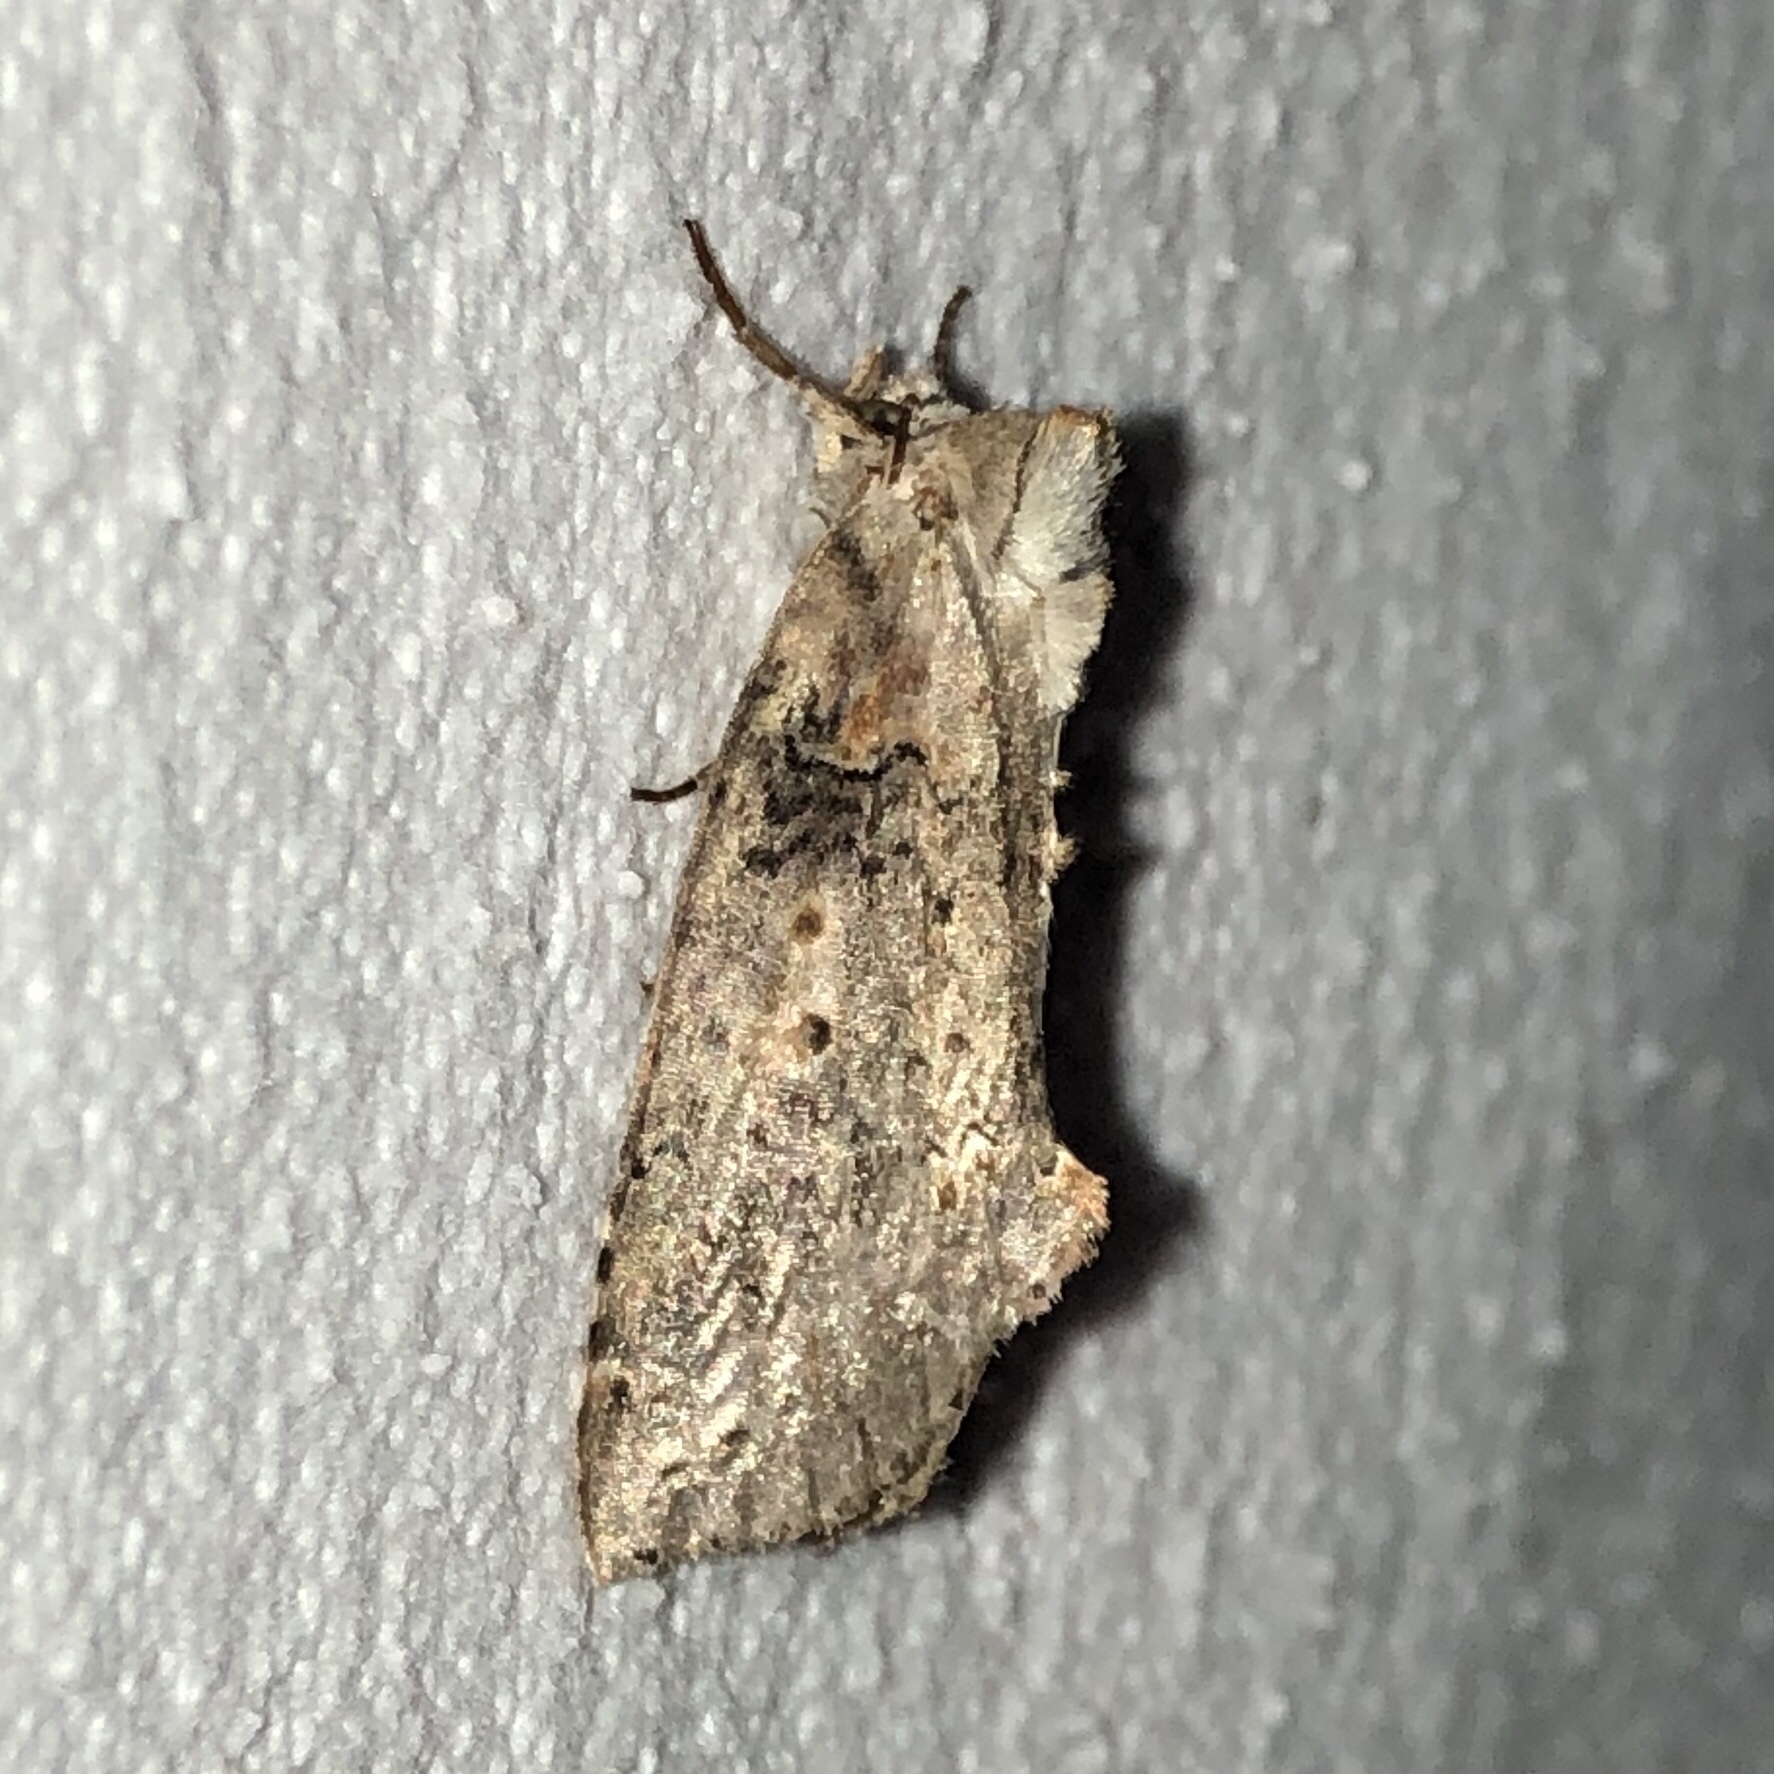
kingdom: Animalia
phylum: Arthropoda
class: Insecta
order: Lepidoptera
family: Drepanidae
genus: Pseudothyatira
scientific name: Pseudothyatira cymatophoroides
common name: Tufted thyatirid moth
